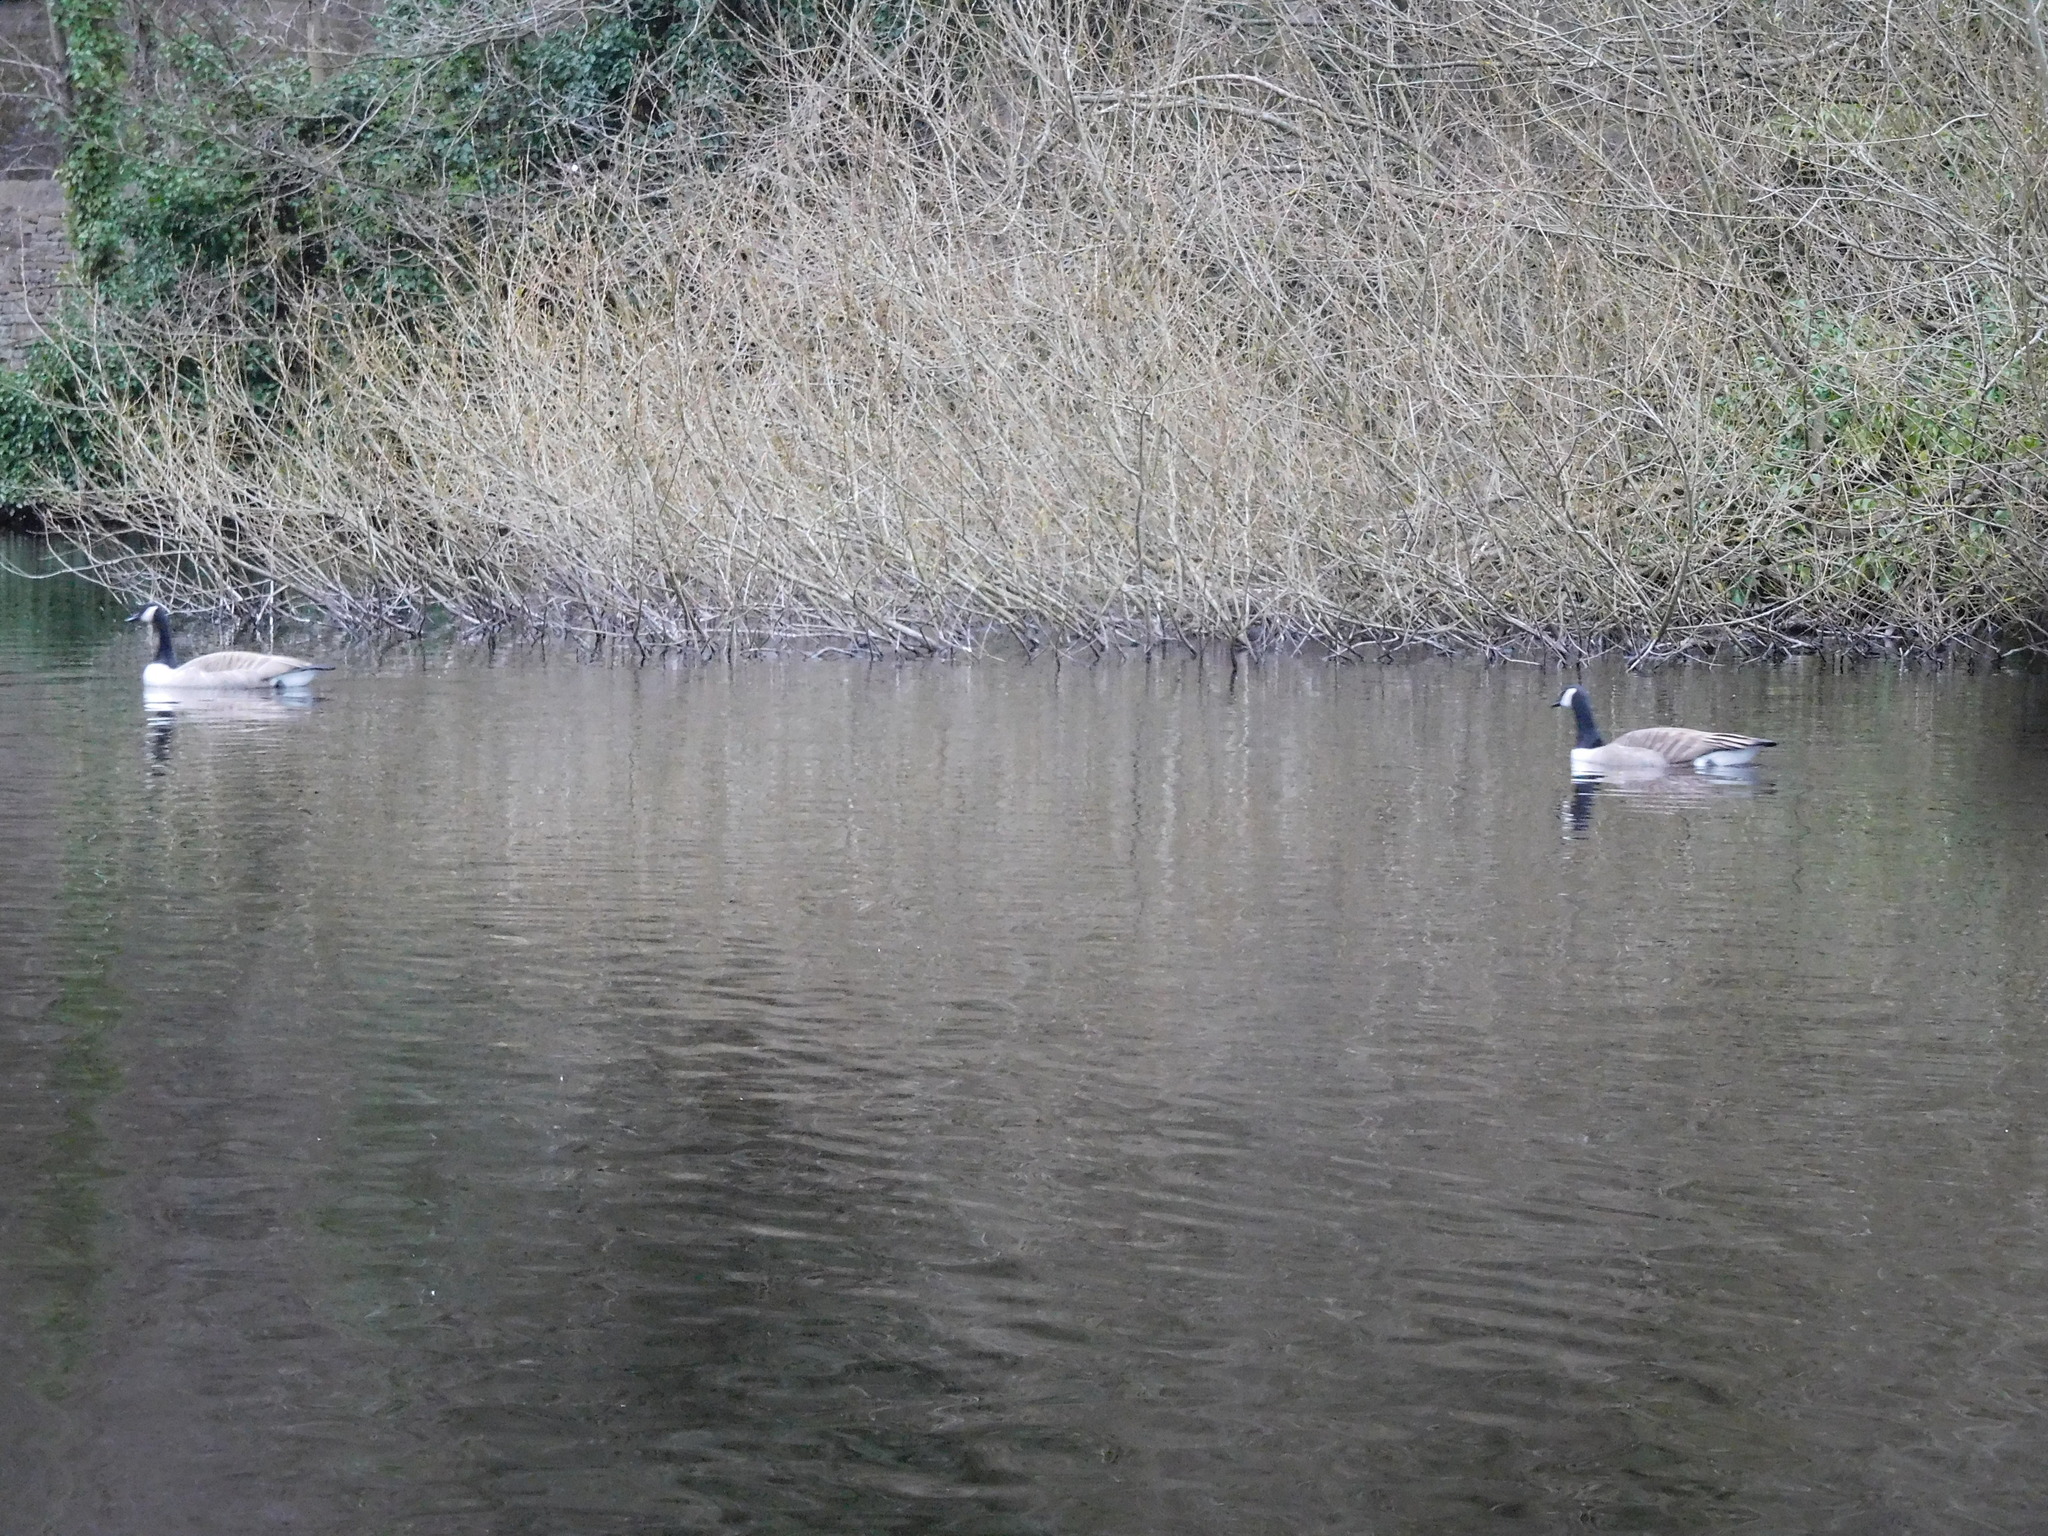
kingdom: Animalia
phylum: Chordata
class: Aves
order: Anseriformes
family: Anatidae
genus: Branta
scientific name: Branta canadensis
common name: Canada goose
